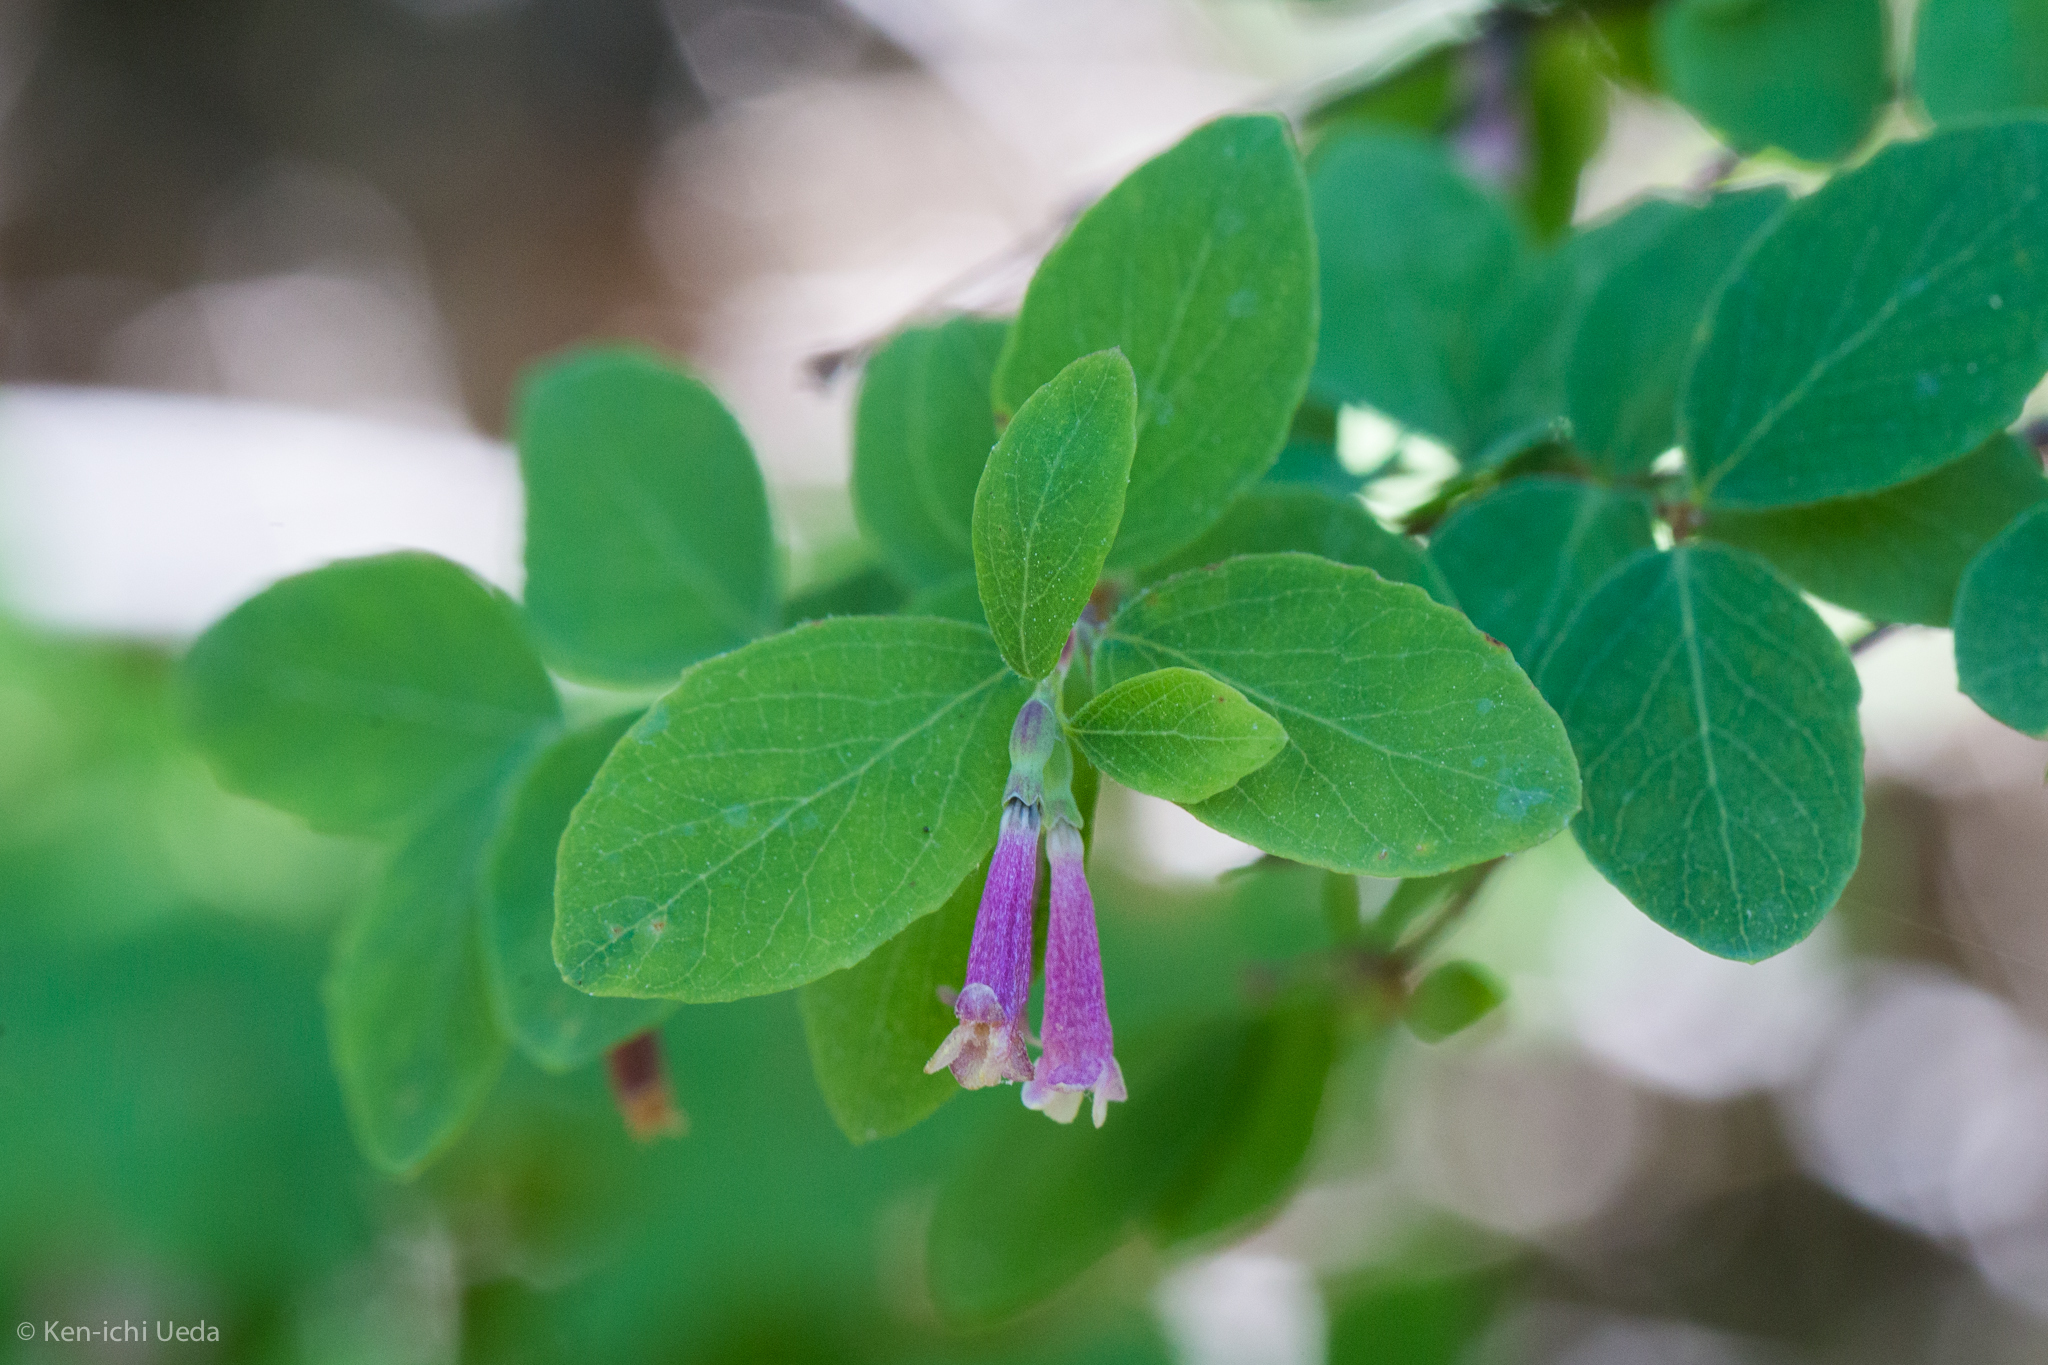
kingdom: Plantae
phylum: Tracheophyta
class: Magnoliopsida
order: Dipsacales
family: Caprifoliaceae
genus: Symphoricarpos
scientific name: Symphoricarpos rotundifolius
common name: Round-leaved snowberry
